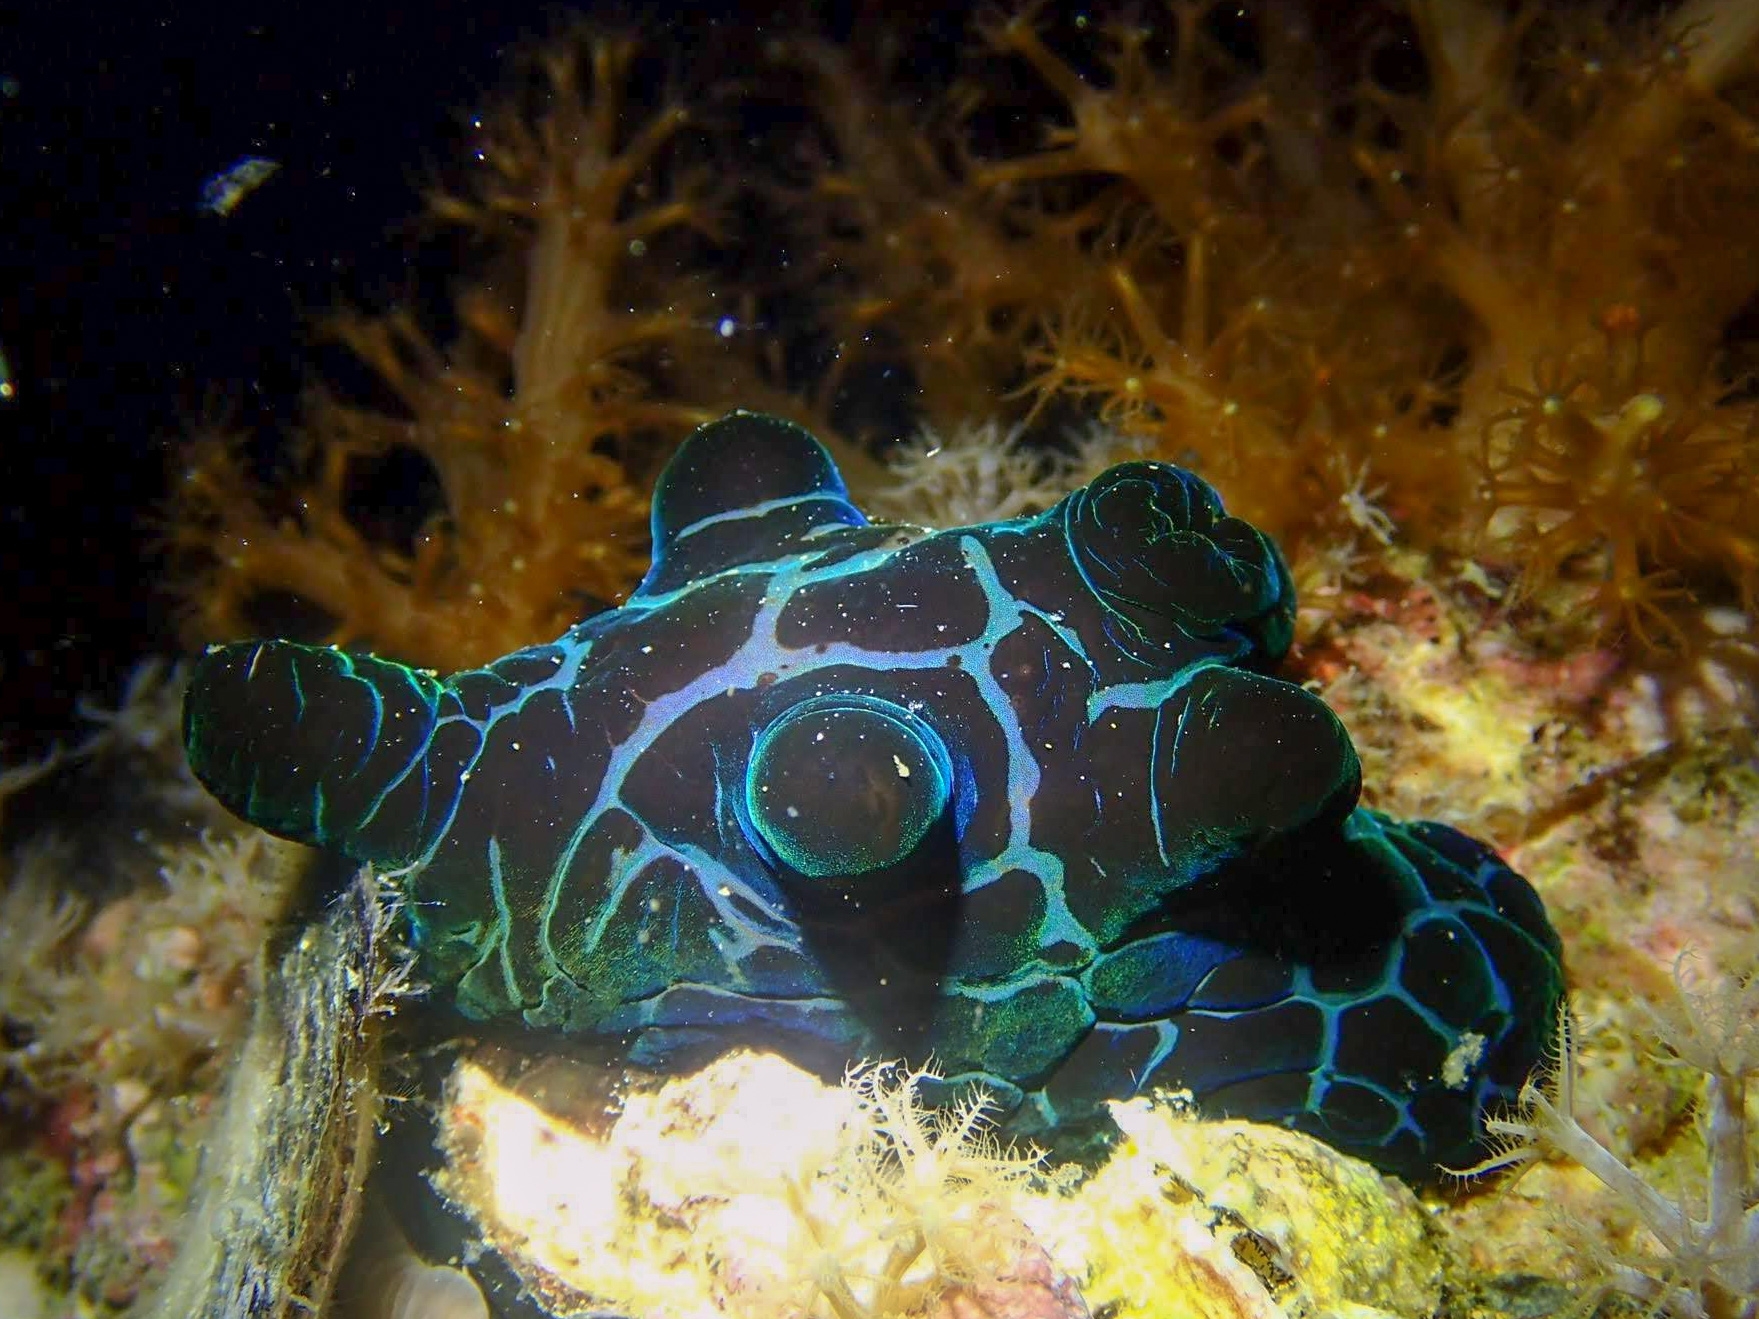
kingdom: Animalia
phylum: Mollusca
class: Gastropoda
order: Littorinimorpha
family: Velutinidae
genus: Coriocella
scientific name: Coriocella nigra
